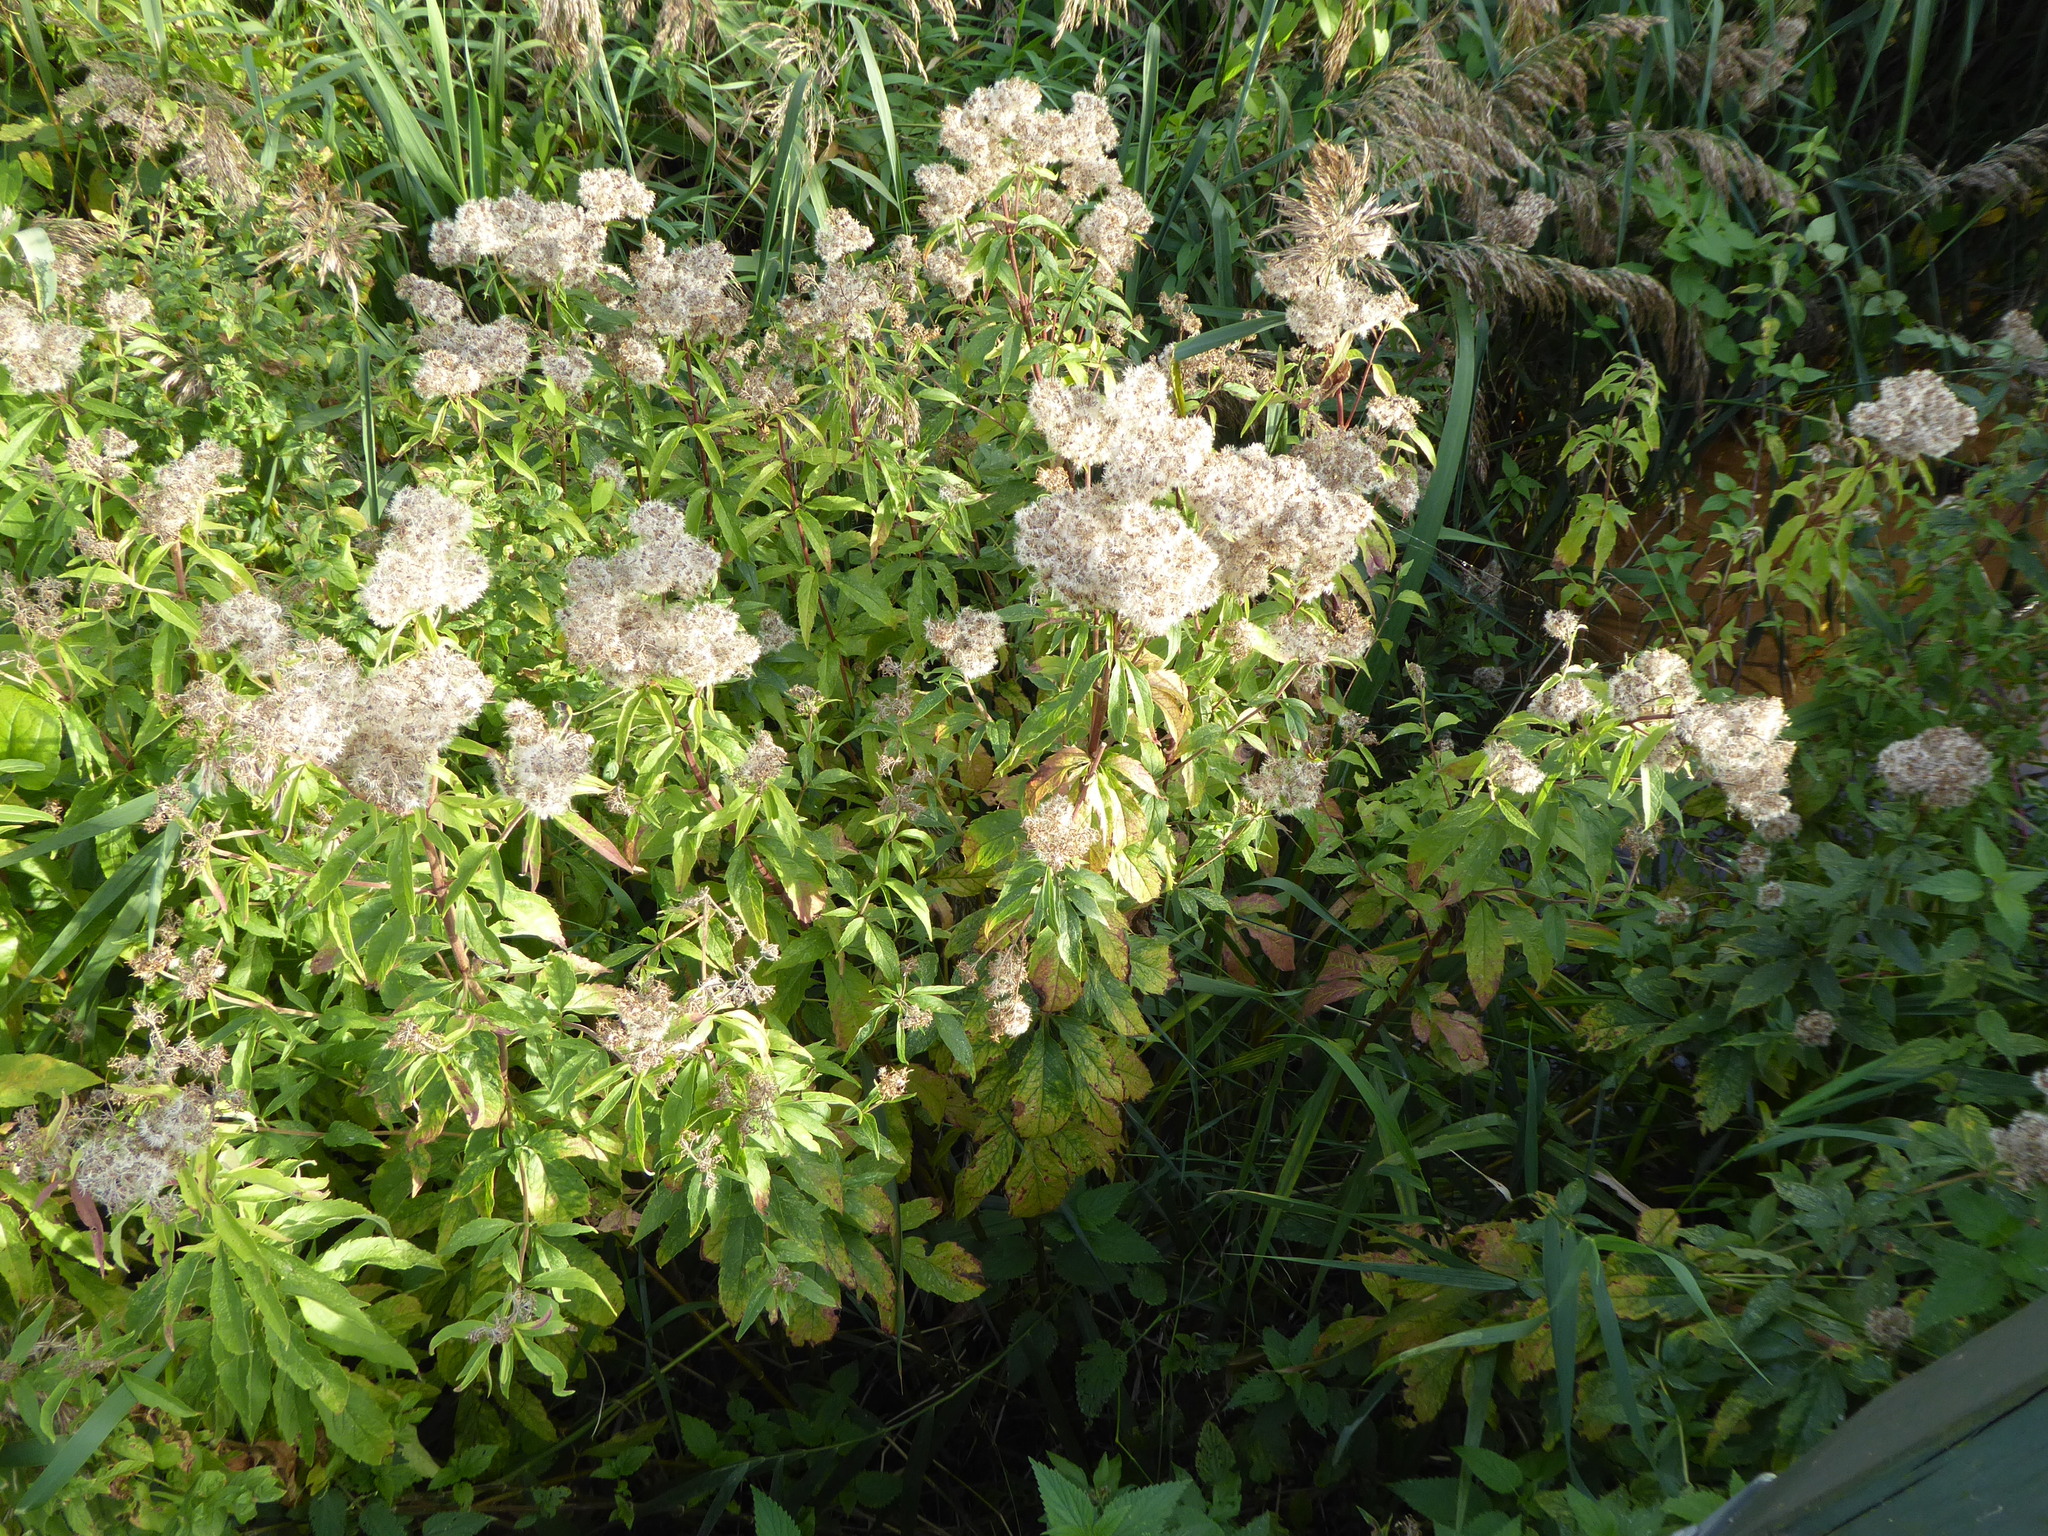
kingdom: Plantae
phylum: Tracheophyta
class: Magnoliopsida
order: Asterales
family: Asteraceae
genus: Eupatorium
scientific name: Eupatorium cannabinum
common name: Hemp-agrimony
